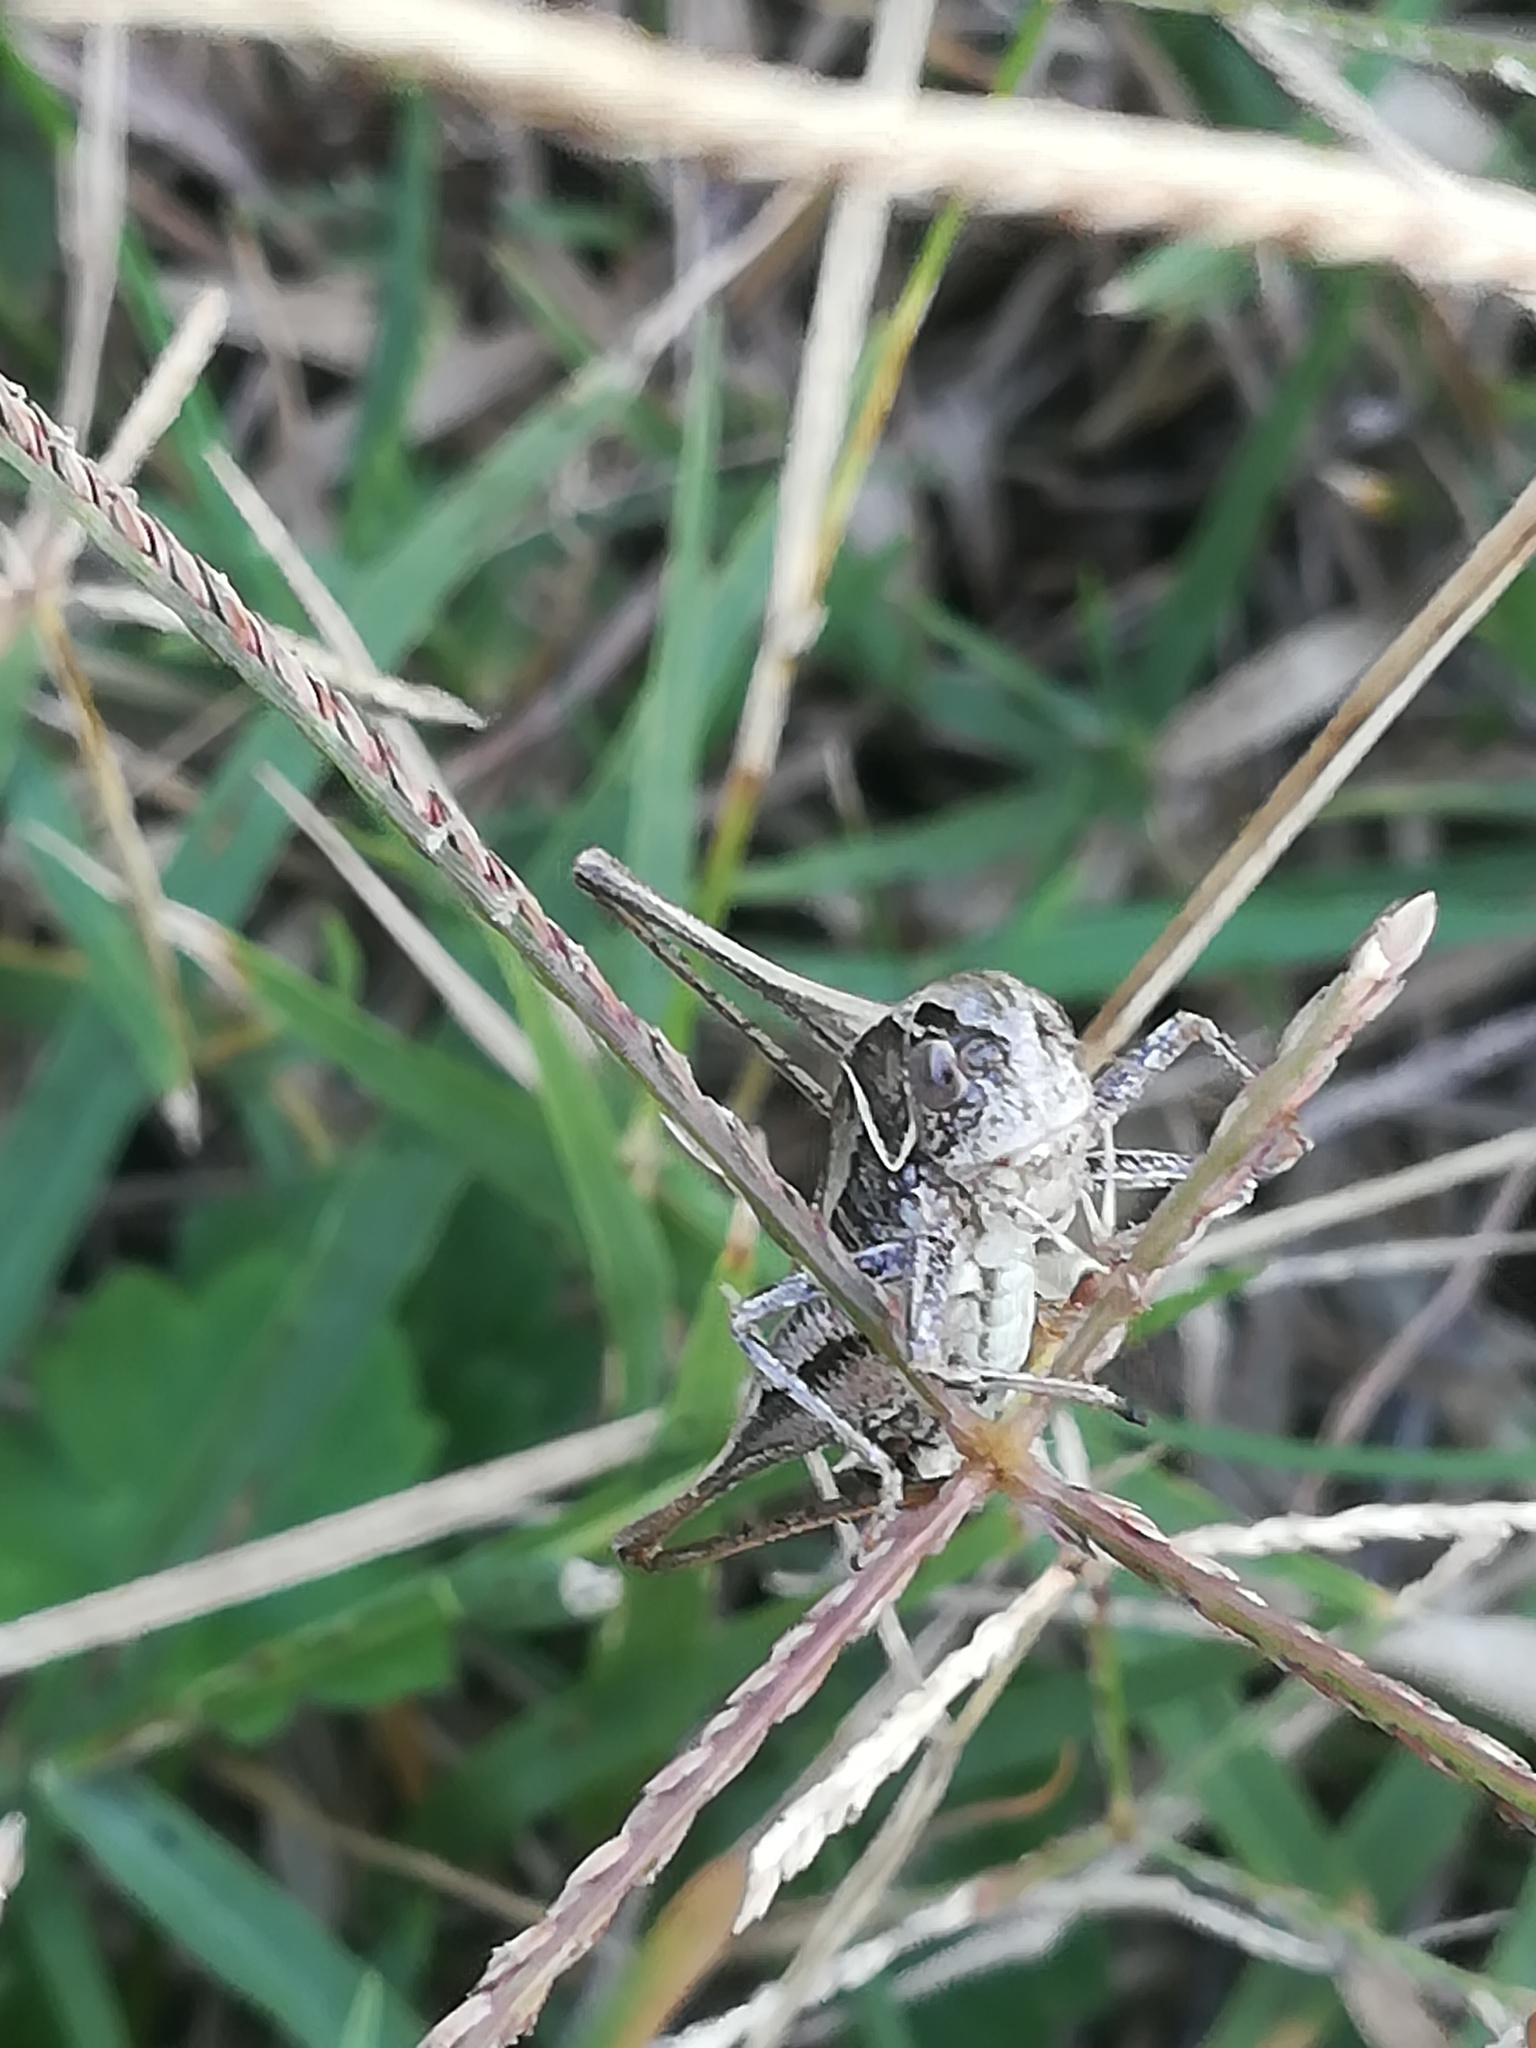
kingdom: Animalia
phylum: Arthropoda
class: Insecta
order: Orthoptera
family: Tettigoniidae
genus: Tessellana
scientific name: Tessellana tessellata
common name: Grasshopper
